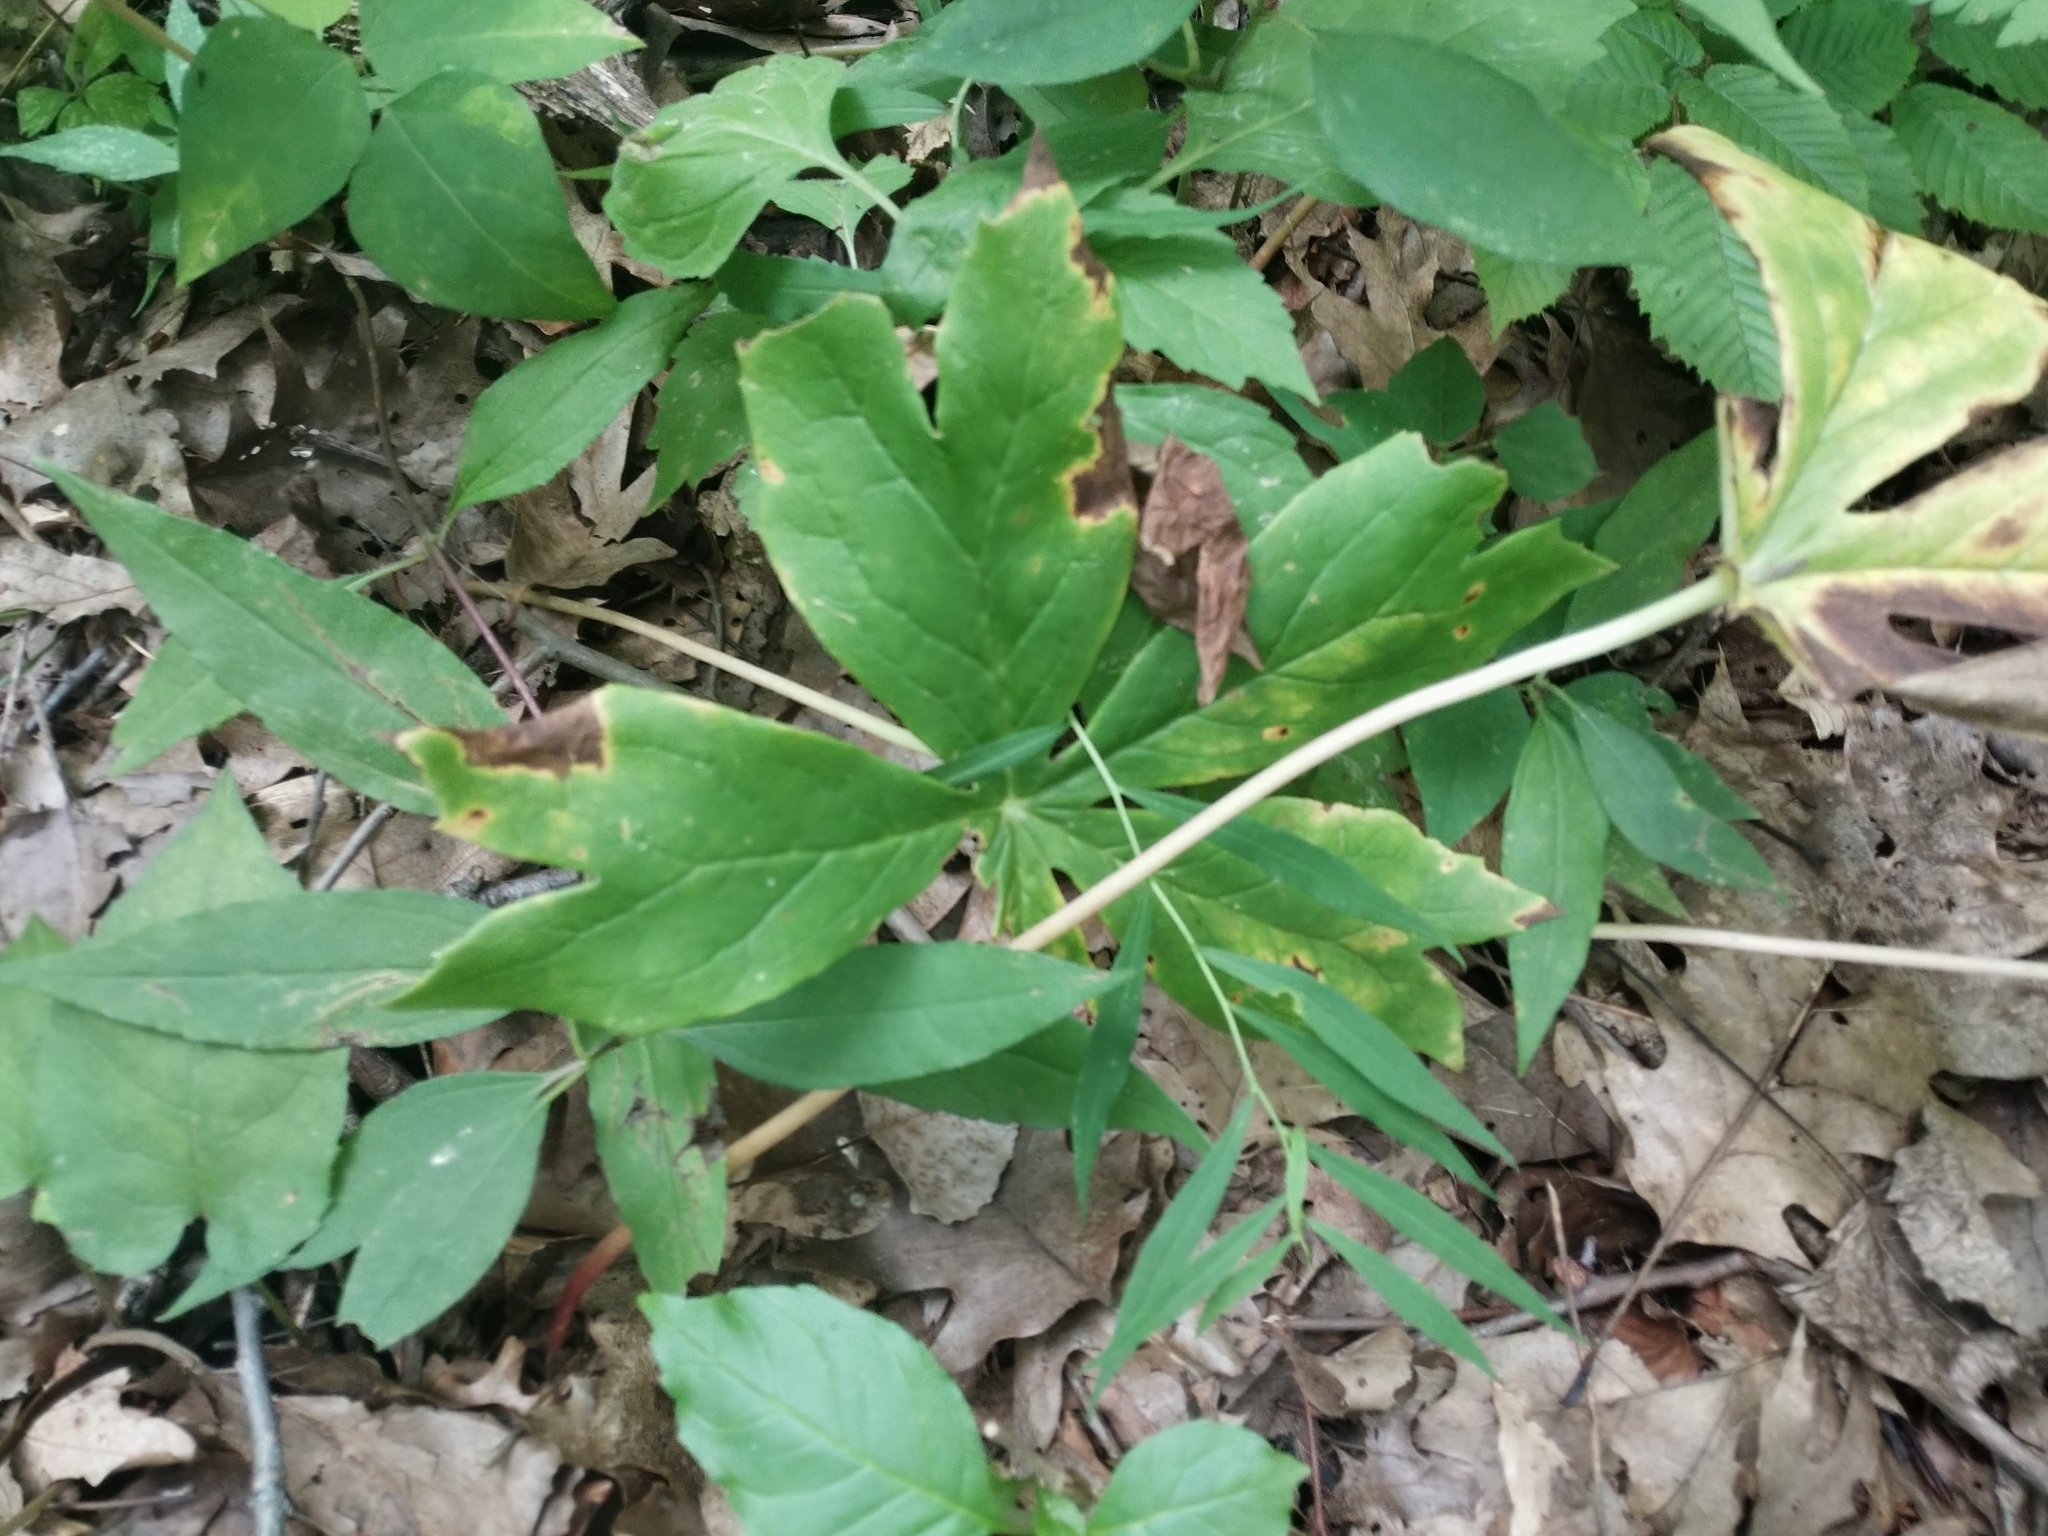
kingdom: Plantae
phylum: Tracheophyta
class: Magnoliopsida
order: Ranunculales
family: Berberidaceae
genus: Podophyllum
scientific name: Podophyllum peltatum
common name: Wild mandrake
